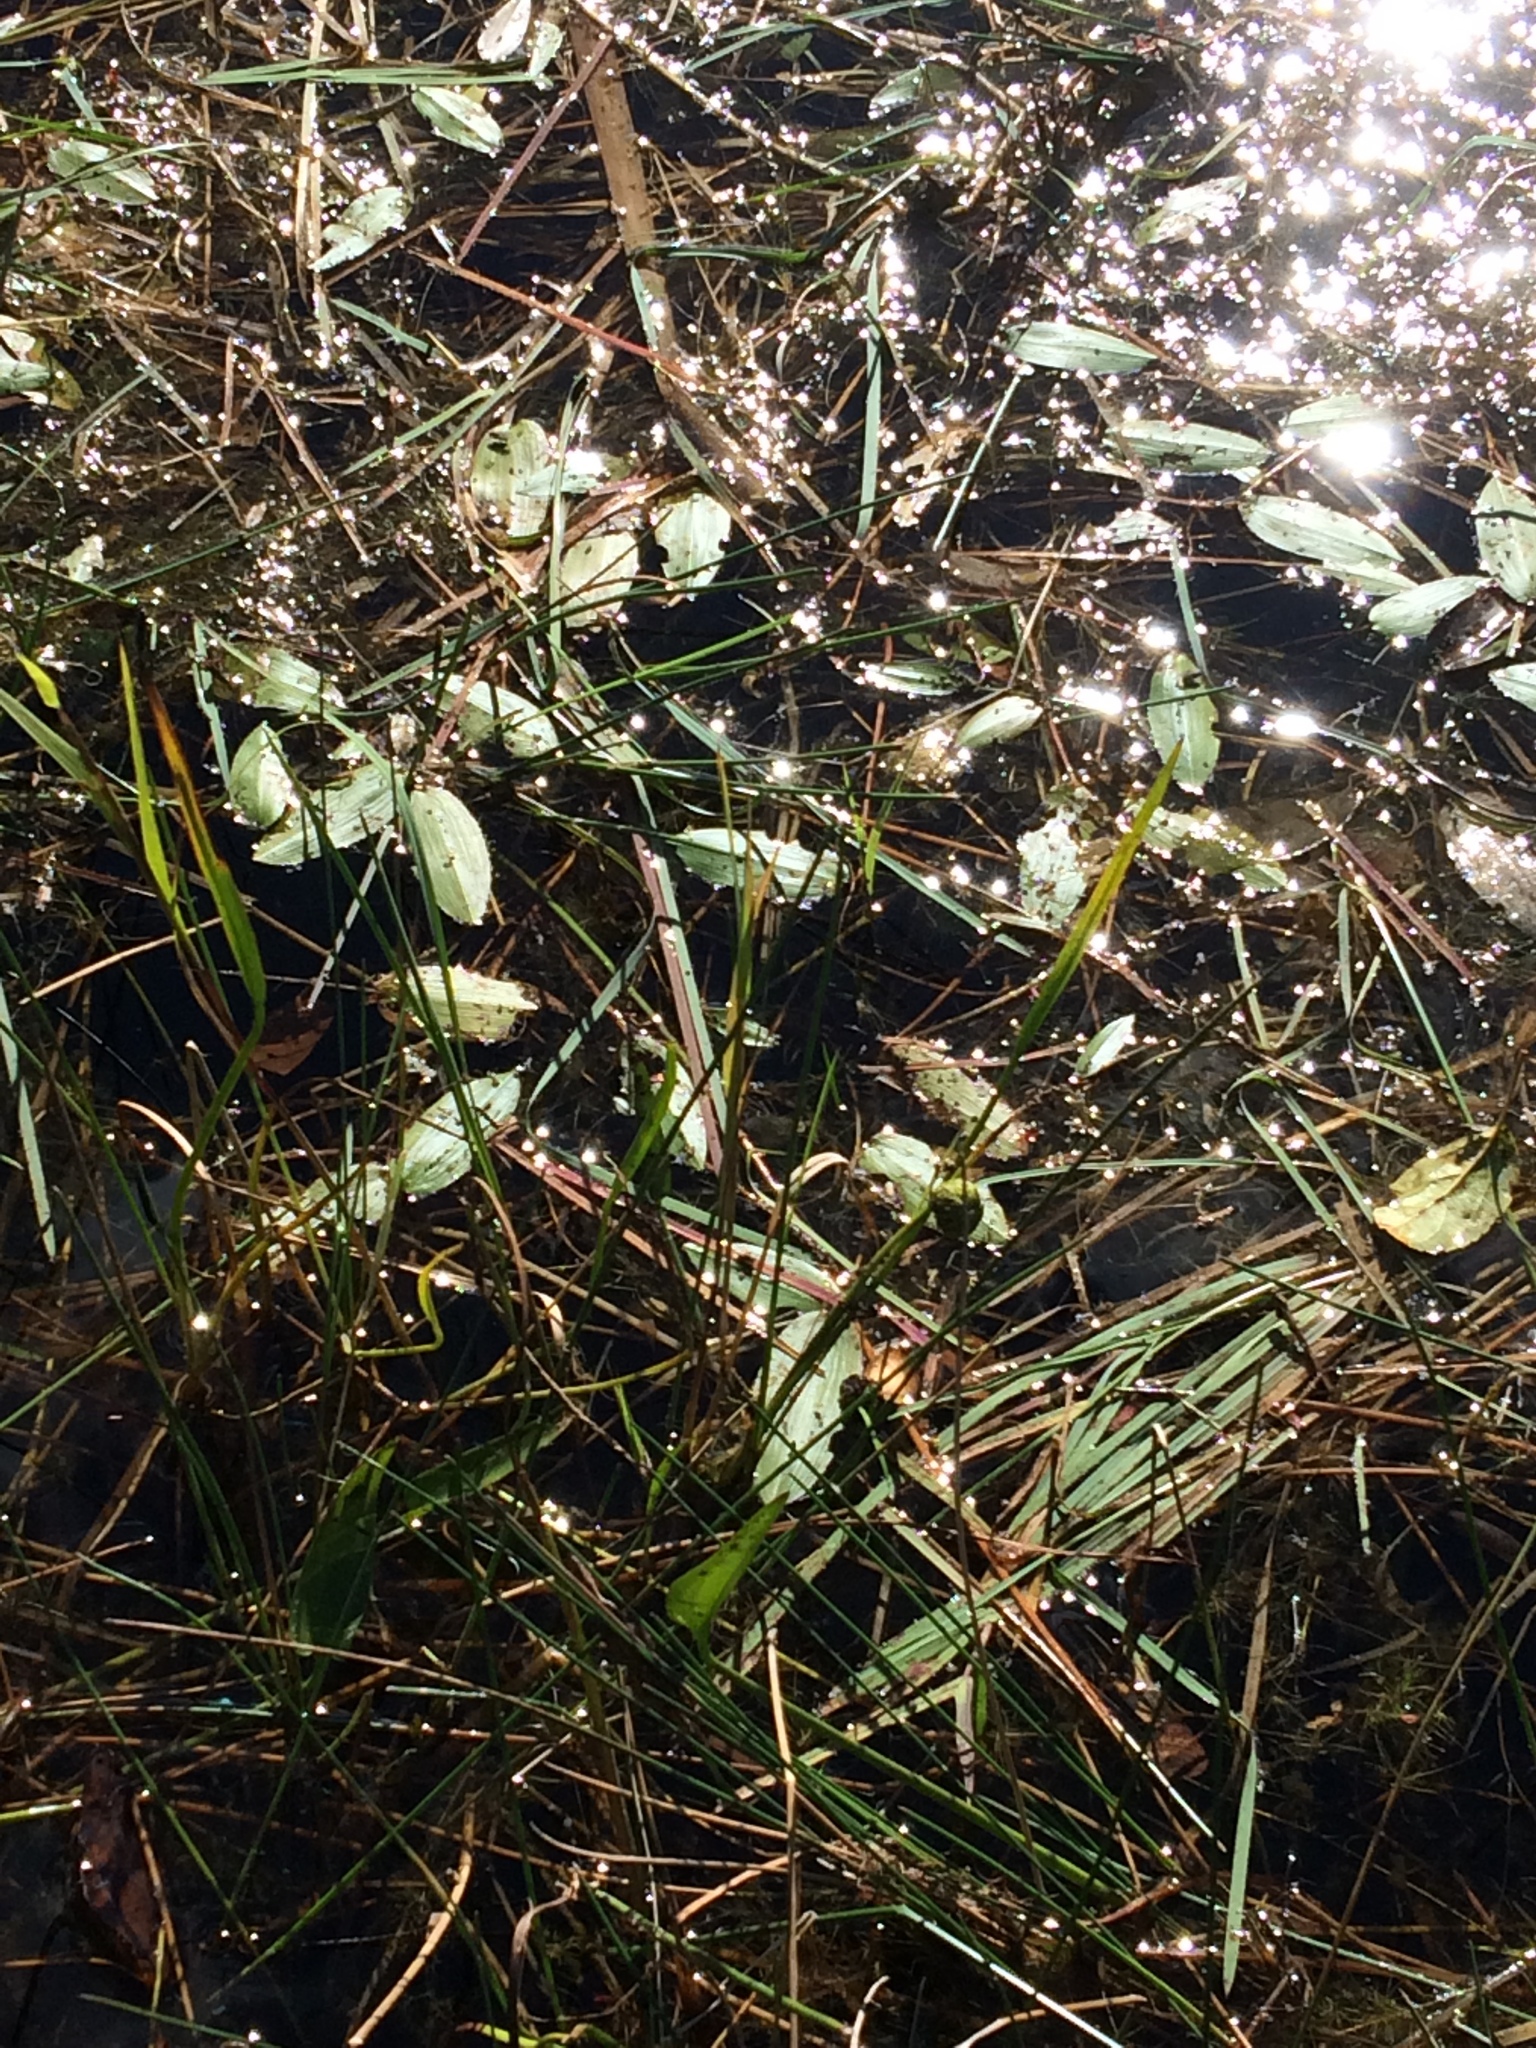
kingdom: Plantae
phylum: Tracheophyta
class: Liliopsida
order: Alismatales
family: Potamogetonaceae
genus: Potamogeton
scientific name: Potamogeton natans
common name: Broad-leaved pondweed
